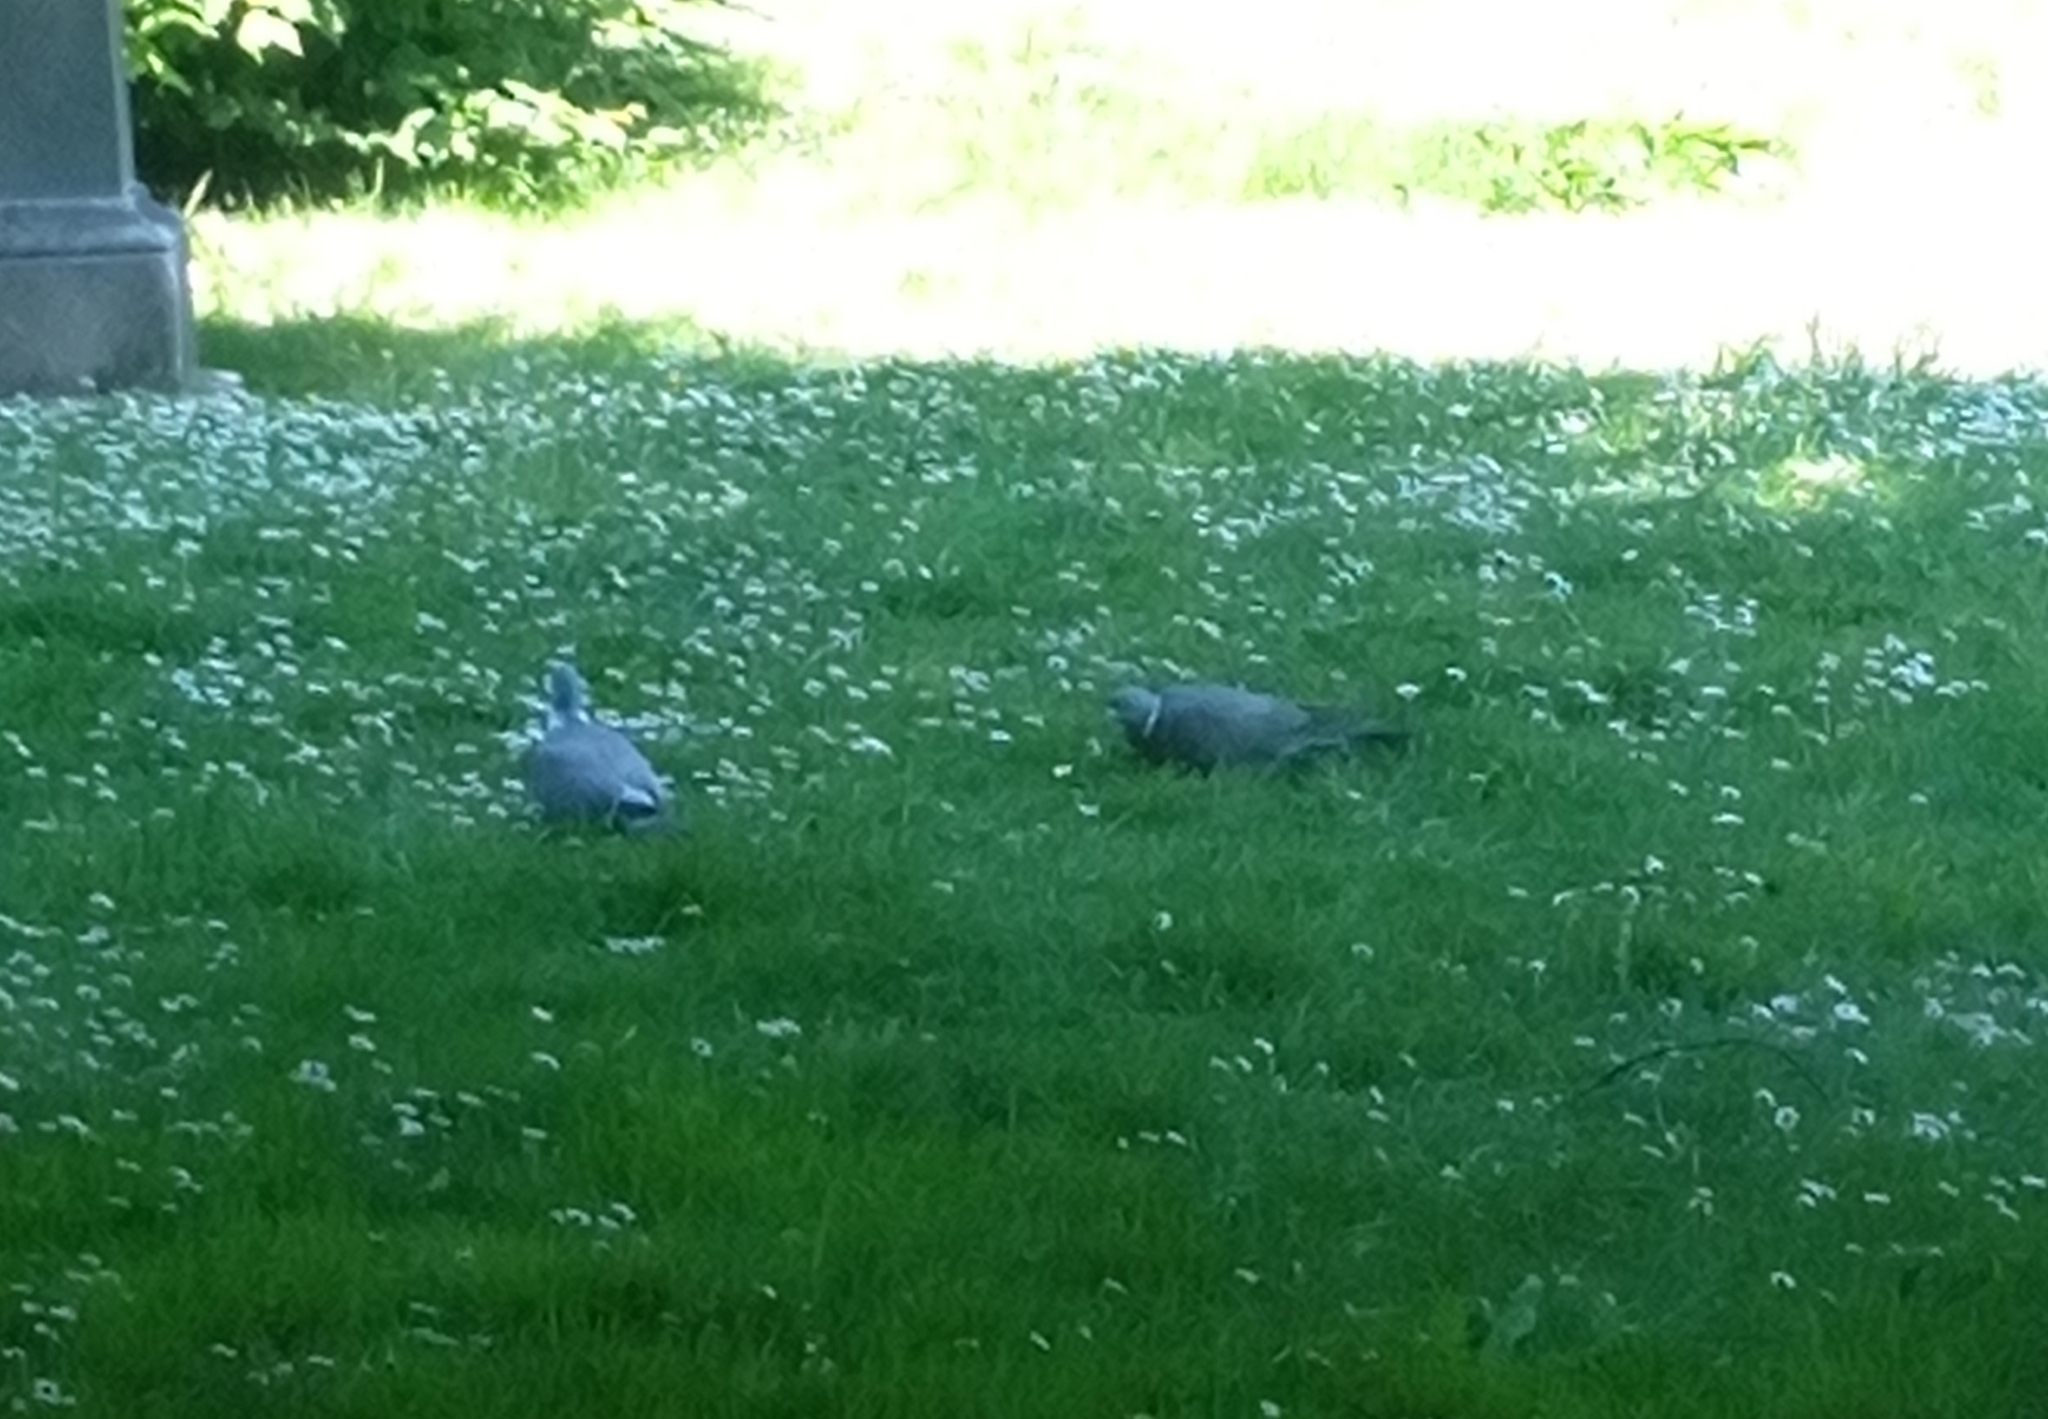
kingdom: Animalia
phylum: Chordata
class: Aves
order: Columbiformes
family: Columbidae
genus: Columba
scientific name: Columba palumbus
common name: Common wood pigeon
